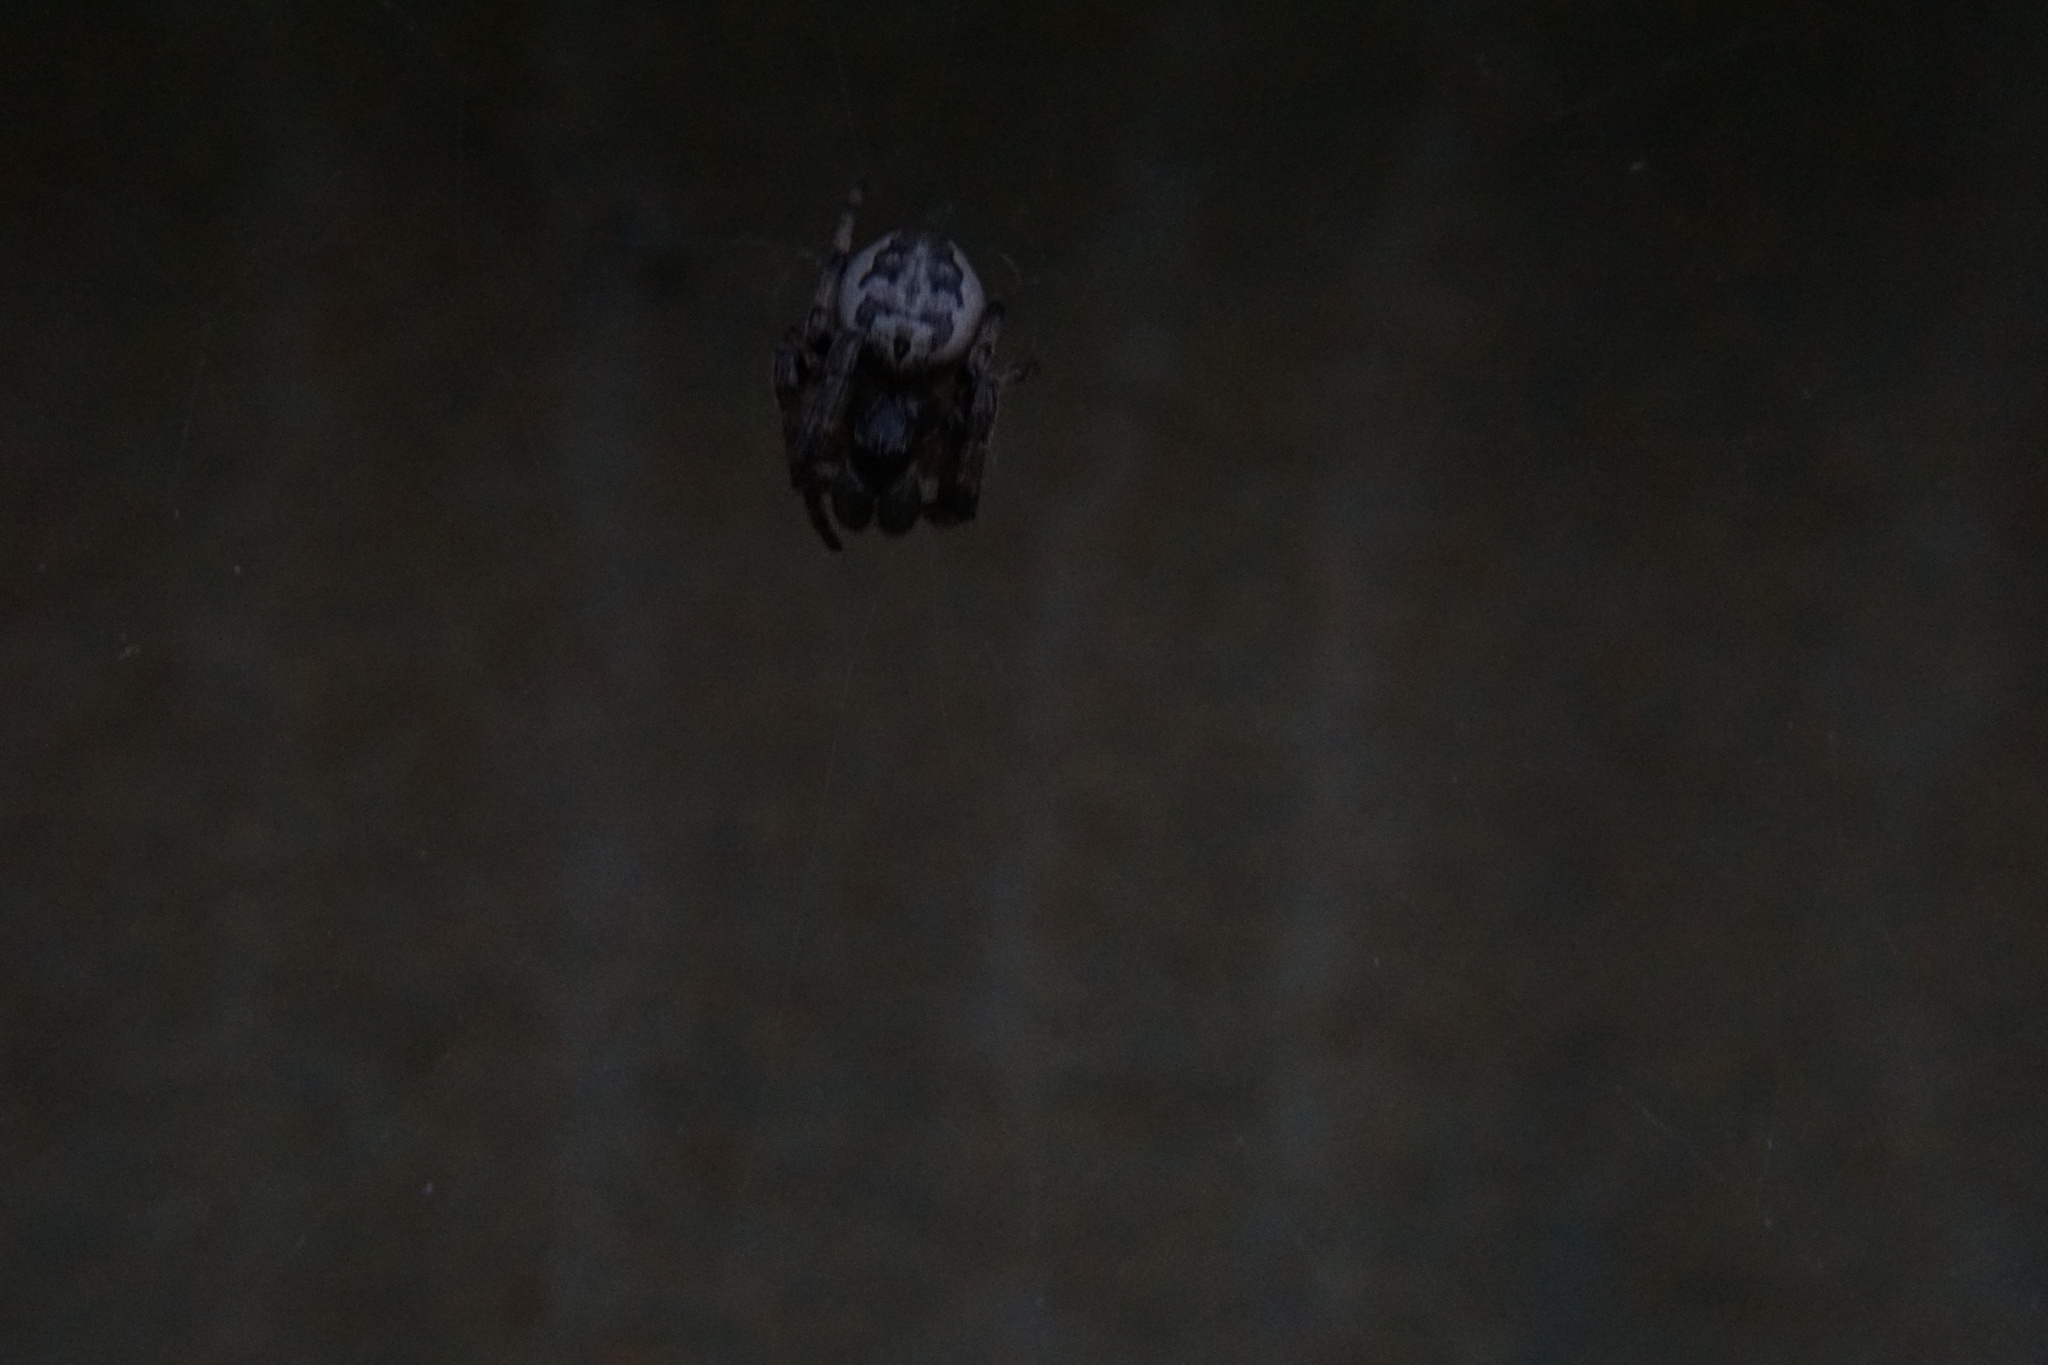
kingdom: Animalia
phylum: Arthropoda
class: Arachnida
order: Araneae
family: Araneidae
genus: Larinioides
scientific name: Larinioides cornutus
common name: Furrow orbweaver
